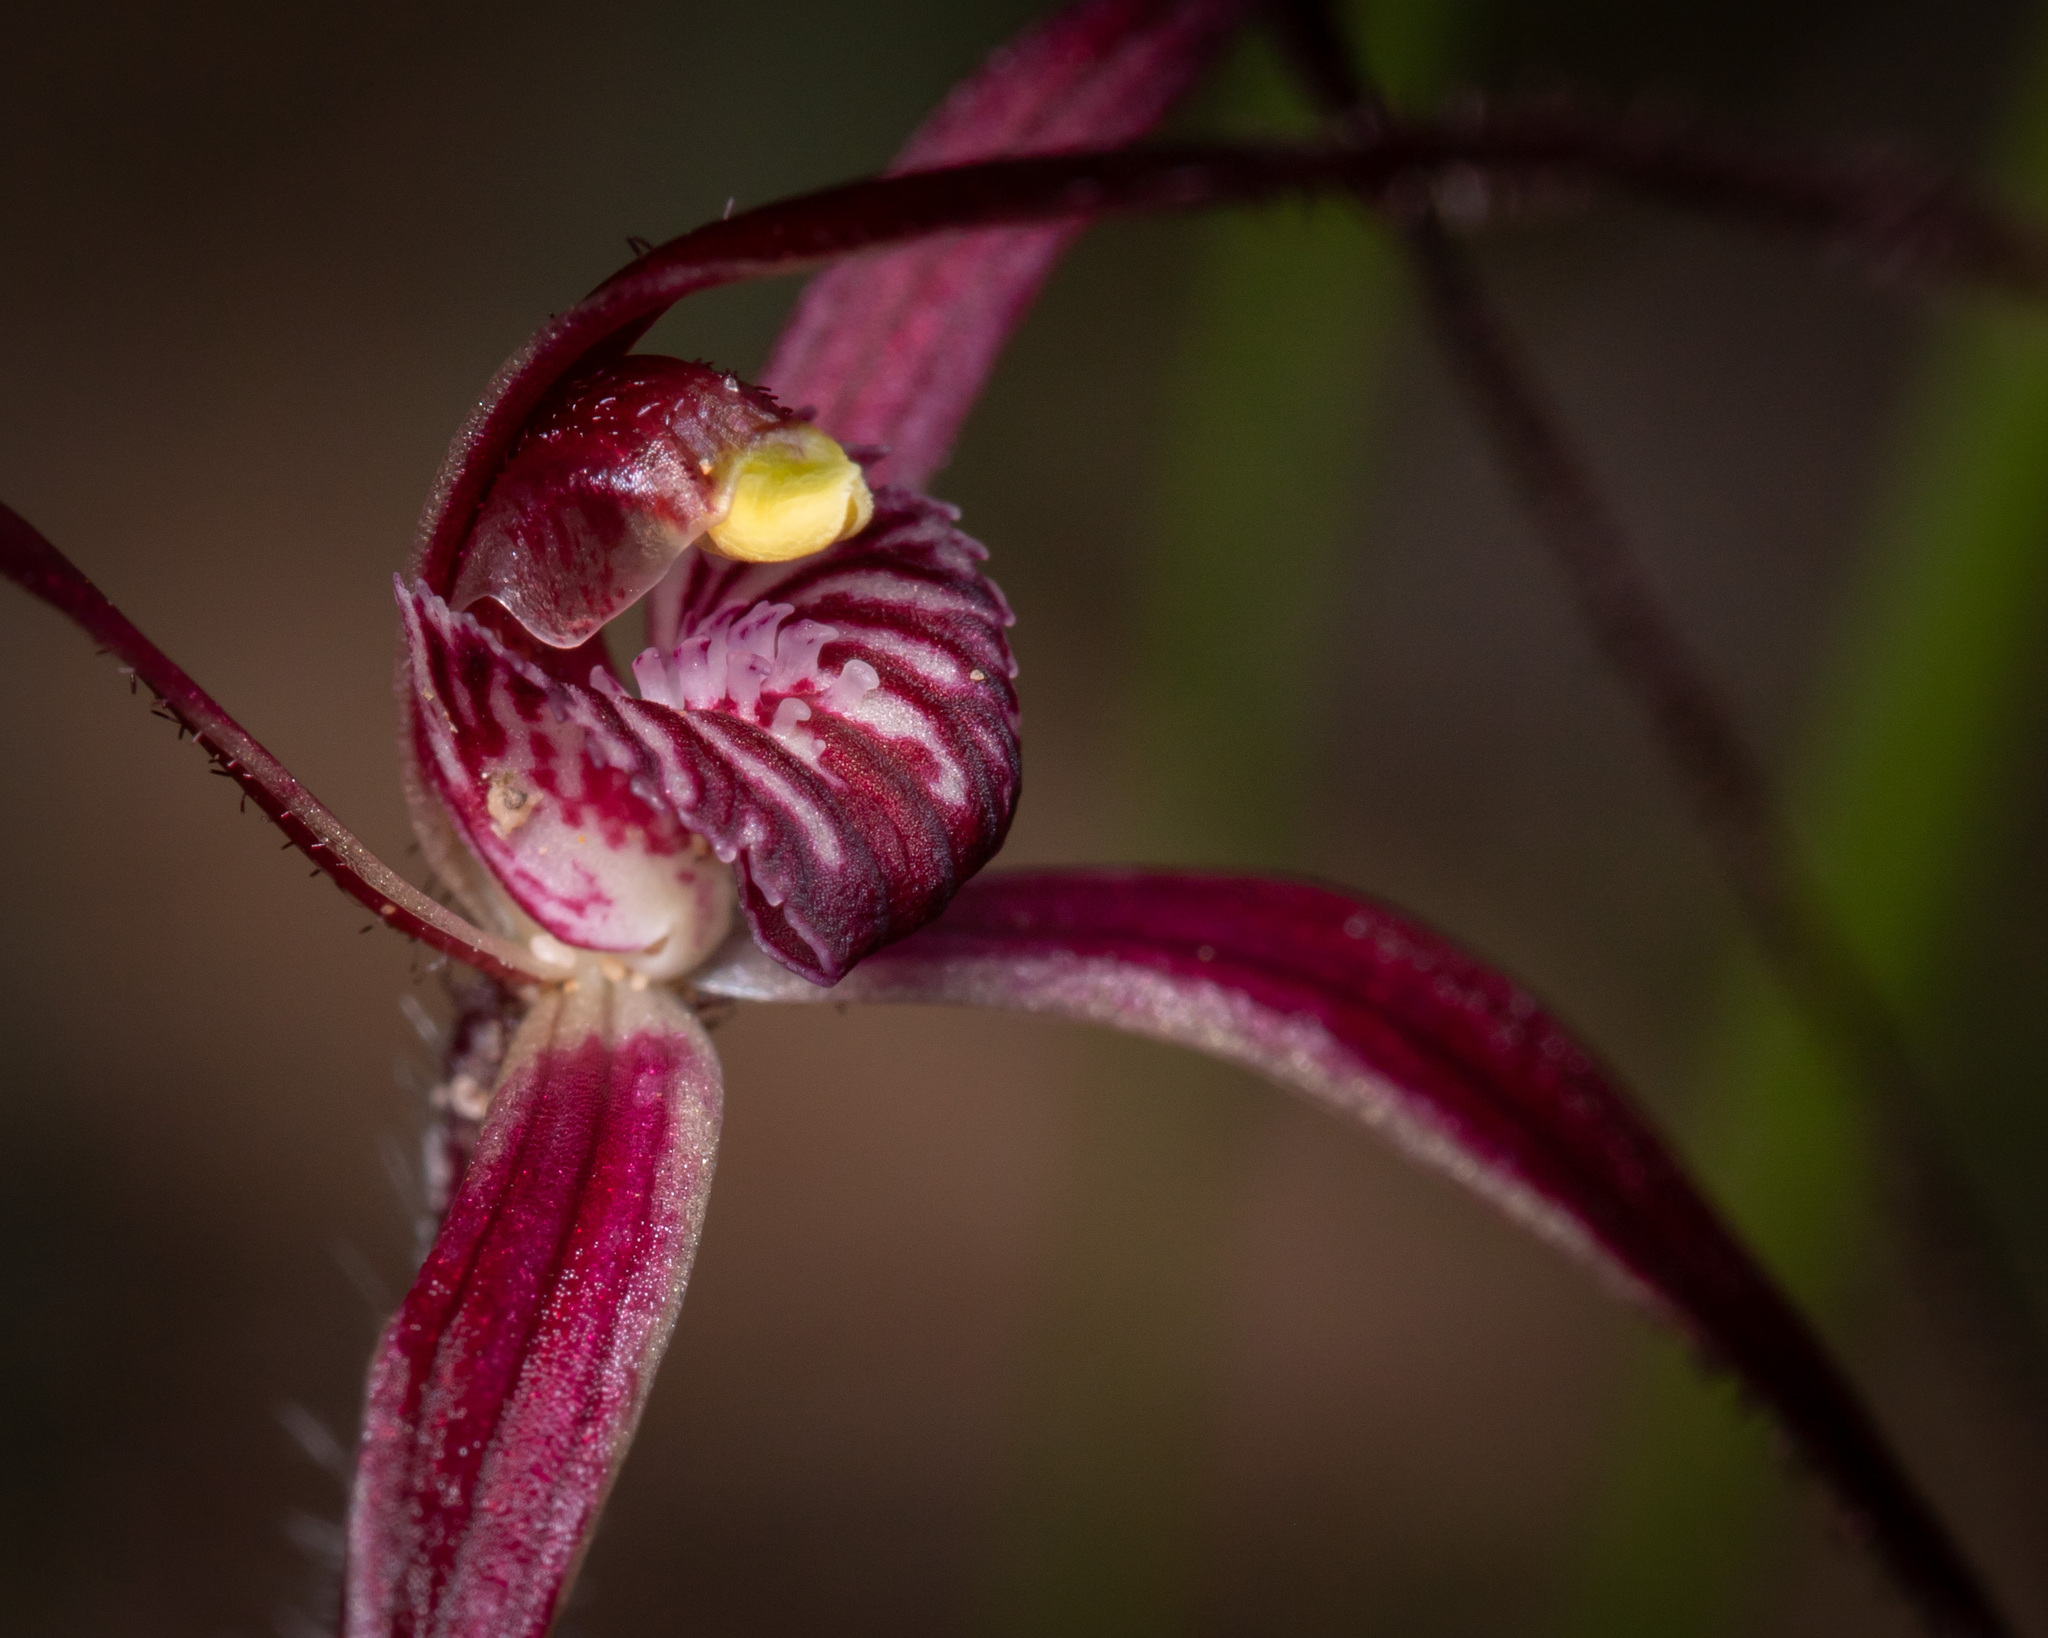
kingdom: Plantae
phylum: Tracheophyta
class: Liliopsida
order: Asparagales
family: Orchidaceae
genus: Caladenia
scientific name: Caladenia dundasiae
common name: Dunda's spider orchid
